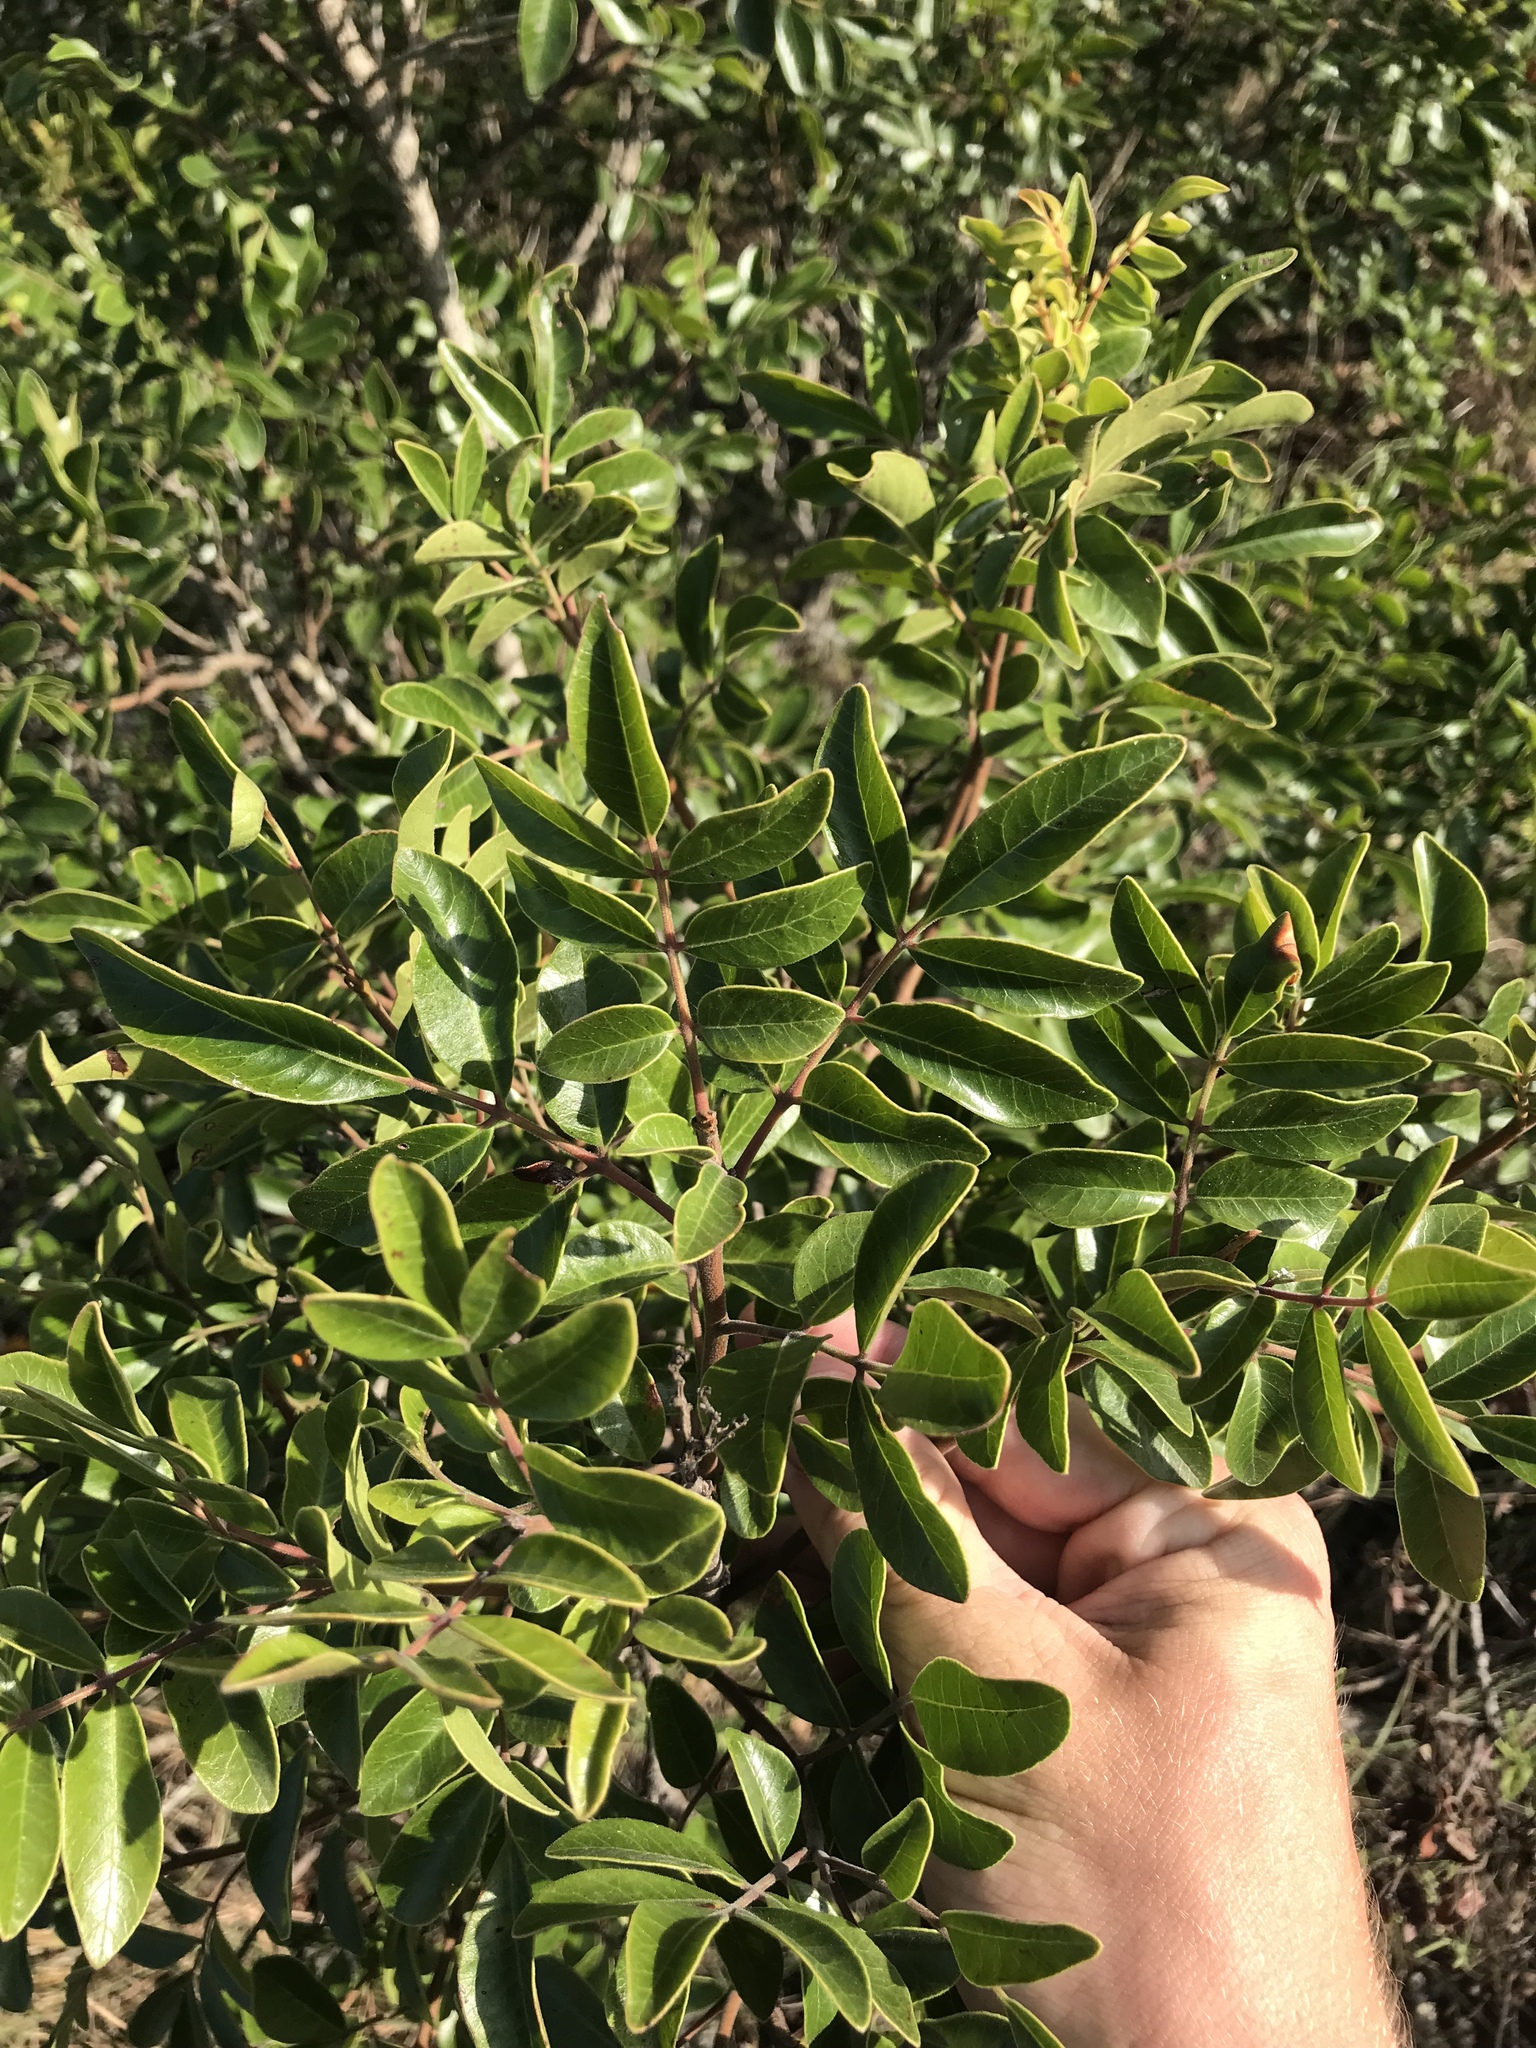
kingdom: Plantae
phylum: Tracheophyta
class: Magnoliopsida
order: Sapindales
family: Anacardiaceae
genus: Rhus
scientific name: Rhus virens
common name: Evergreen sumac
